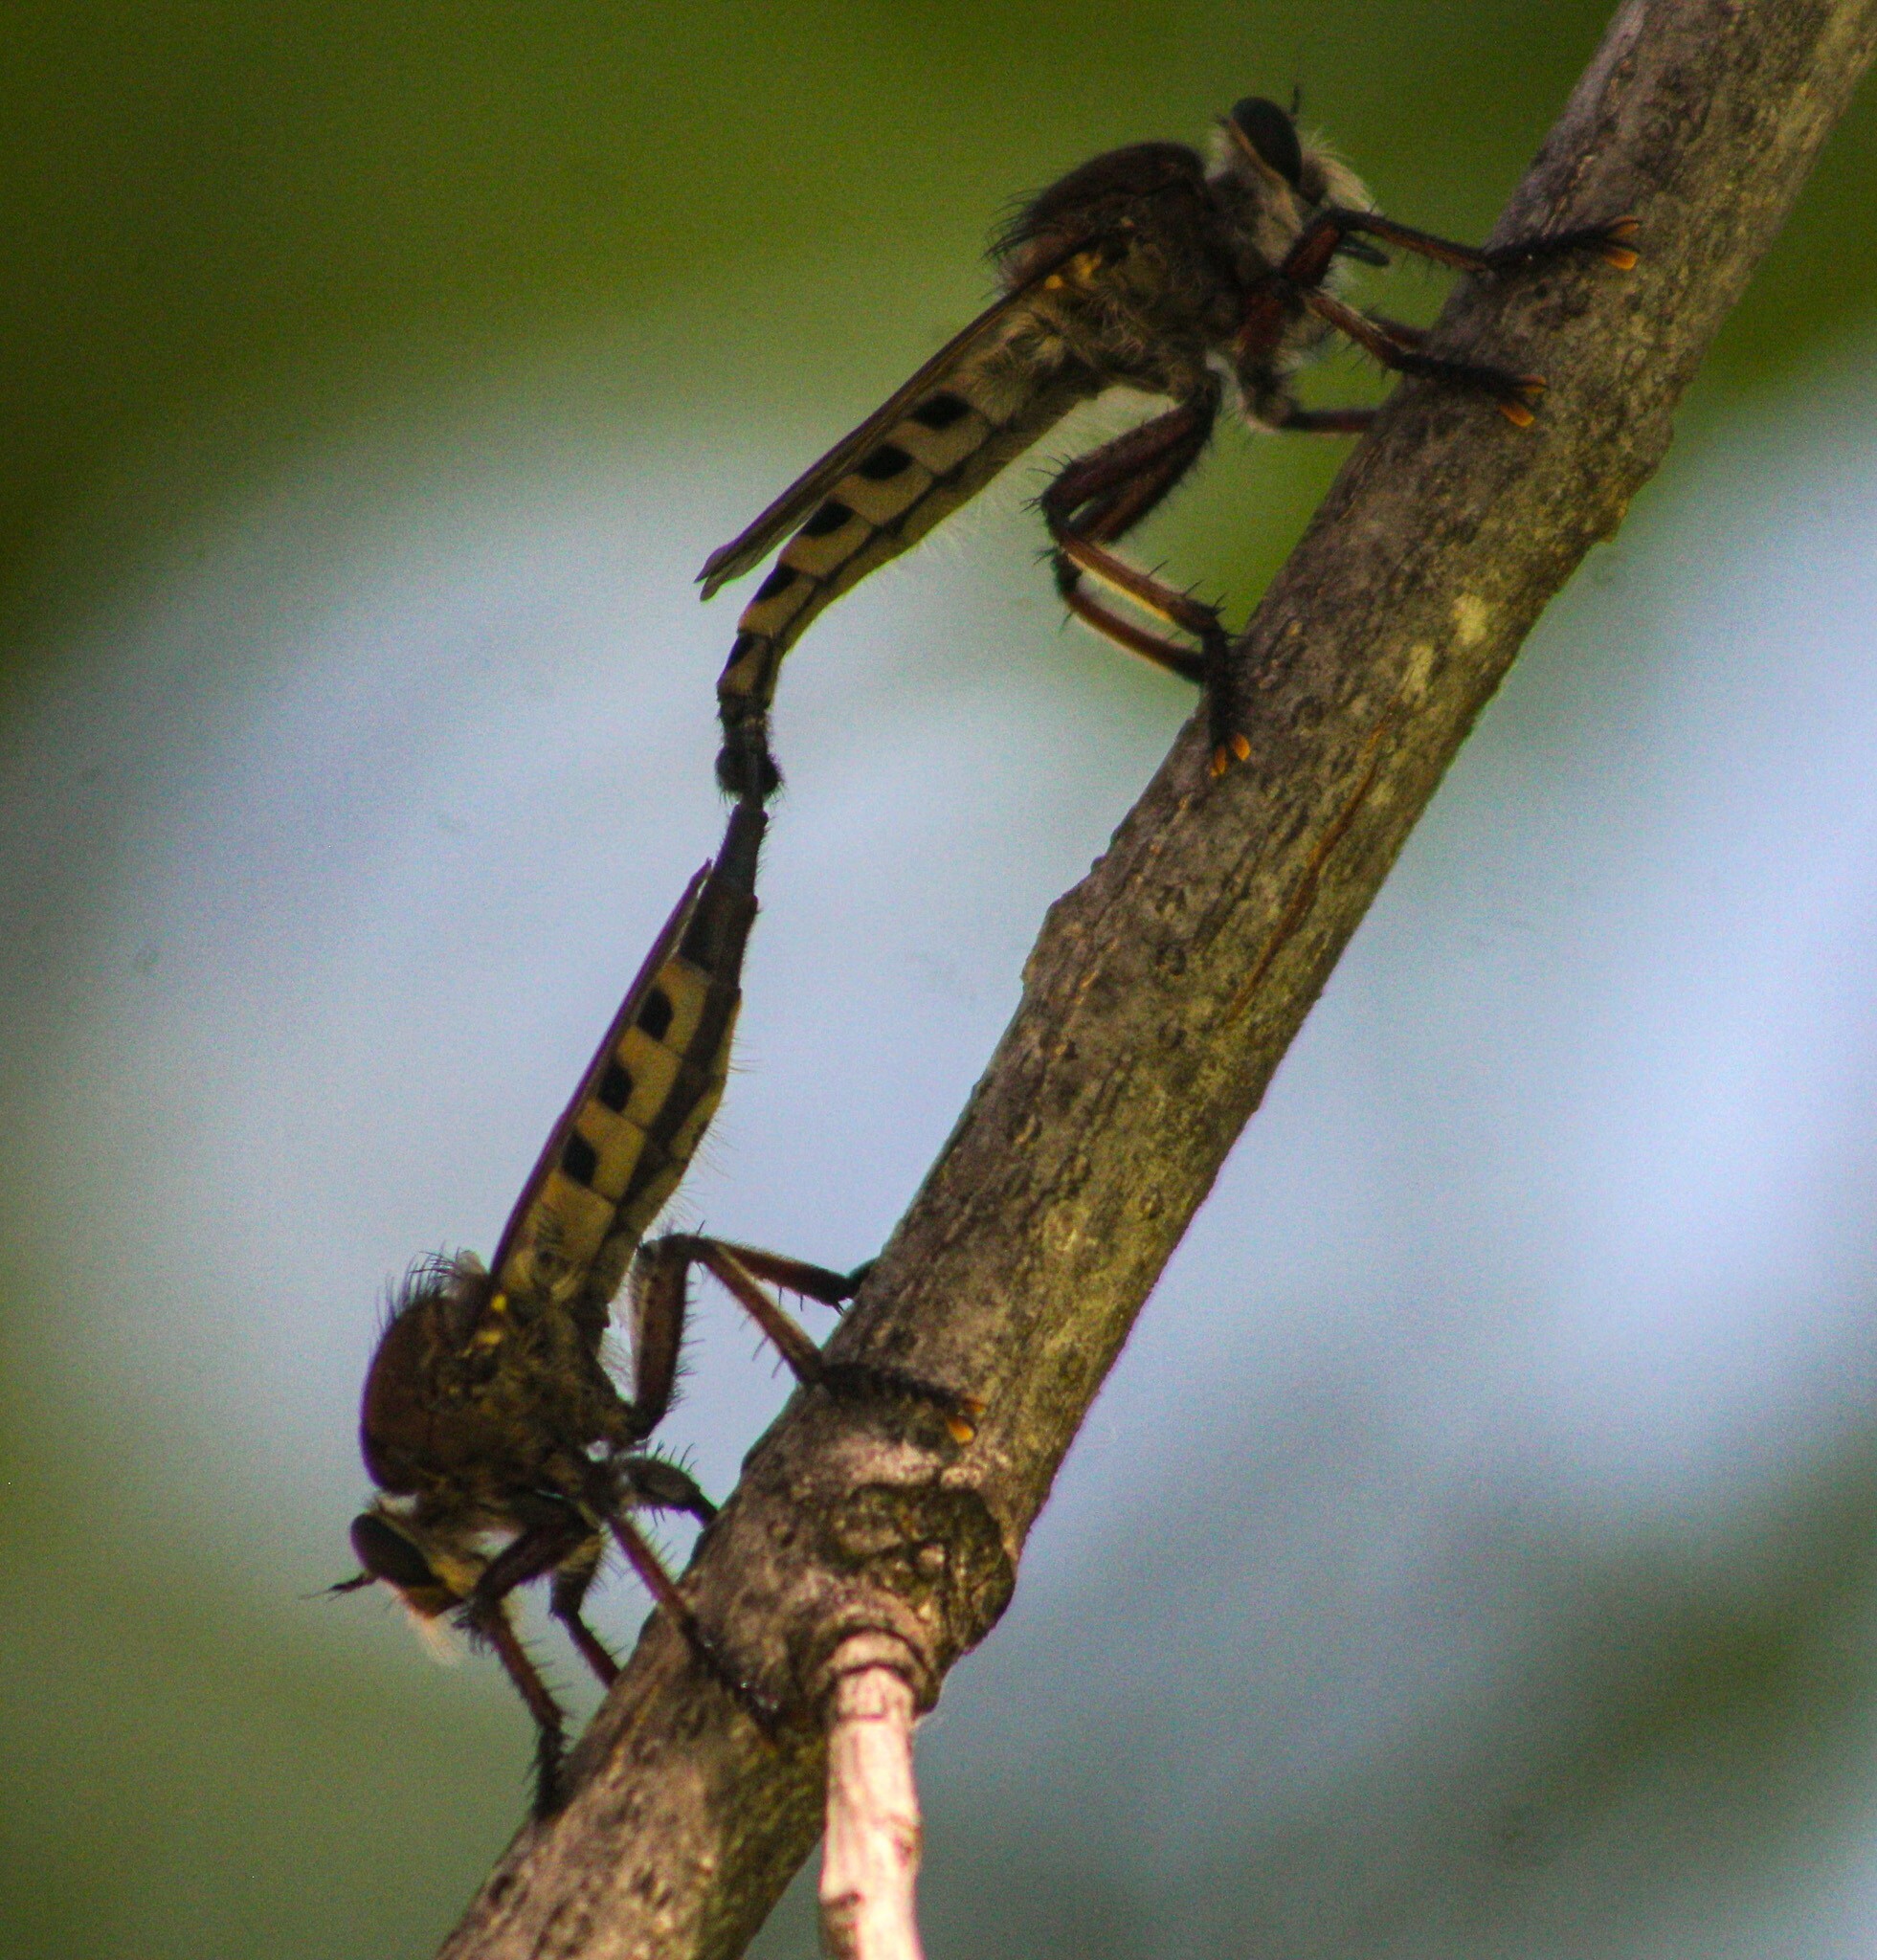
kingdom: Animalia
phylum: Arthropoda
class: Insecta
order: Diptera
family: Asilidae
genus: Promachus
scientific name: Promachus hinei
